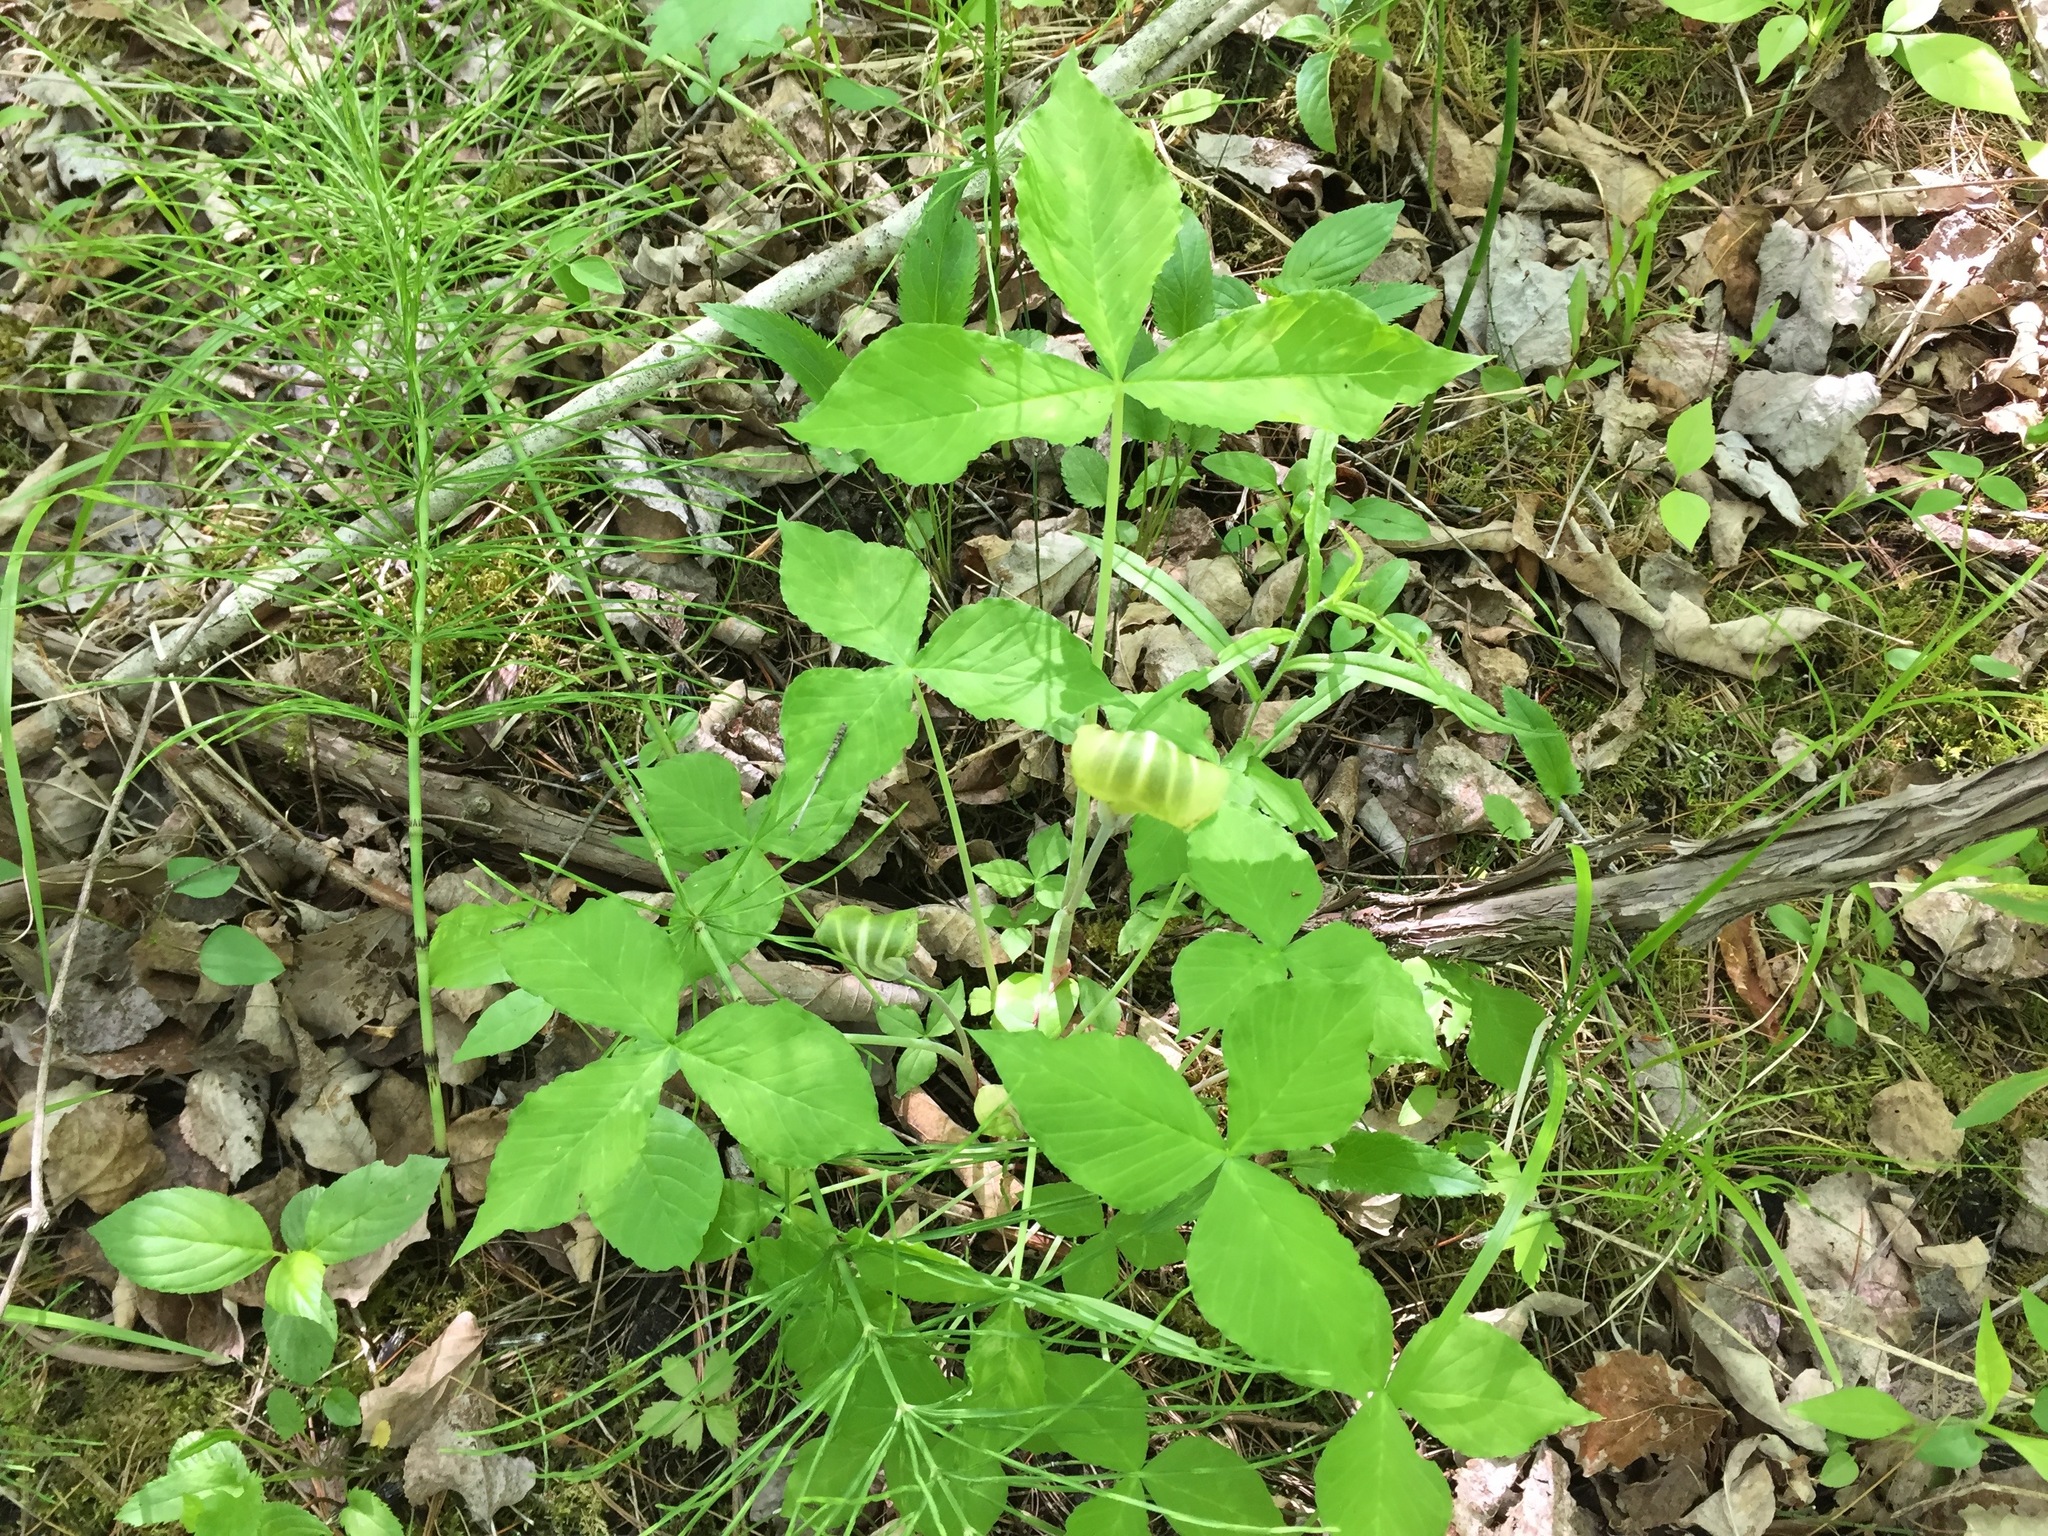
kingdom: Plantae
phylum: Tracheophyta
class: Liliopsida
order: Alismatales
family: Araceae
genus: Arisaema
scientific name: Arisaema triphyllum
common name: Jack-in-the-pulpit
